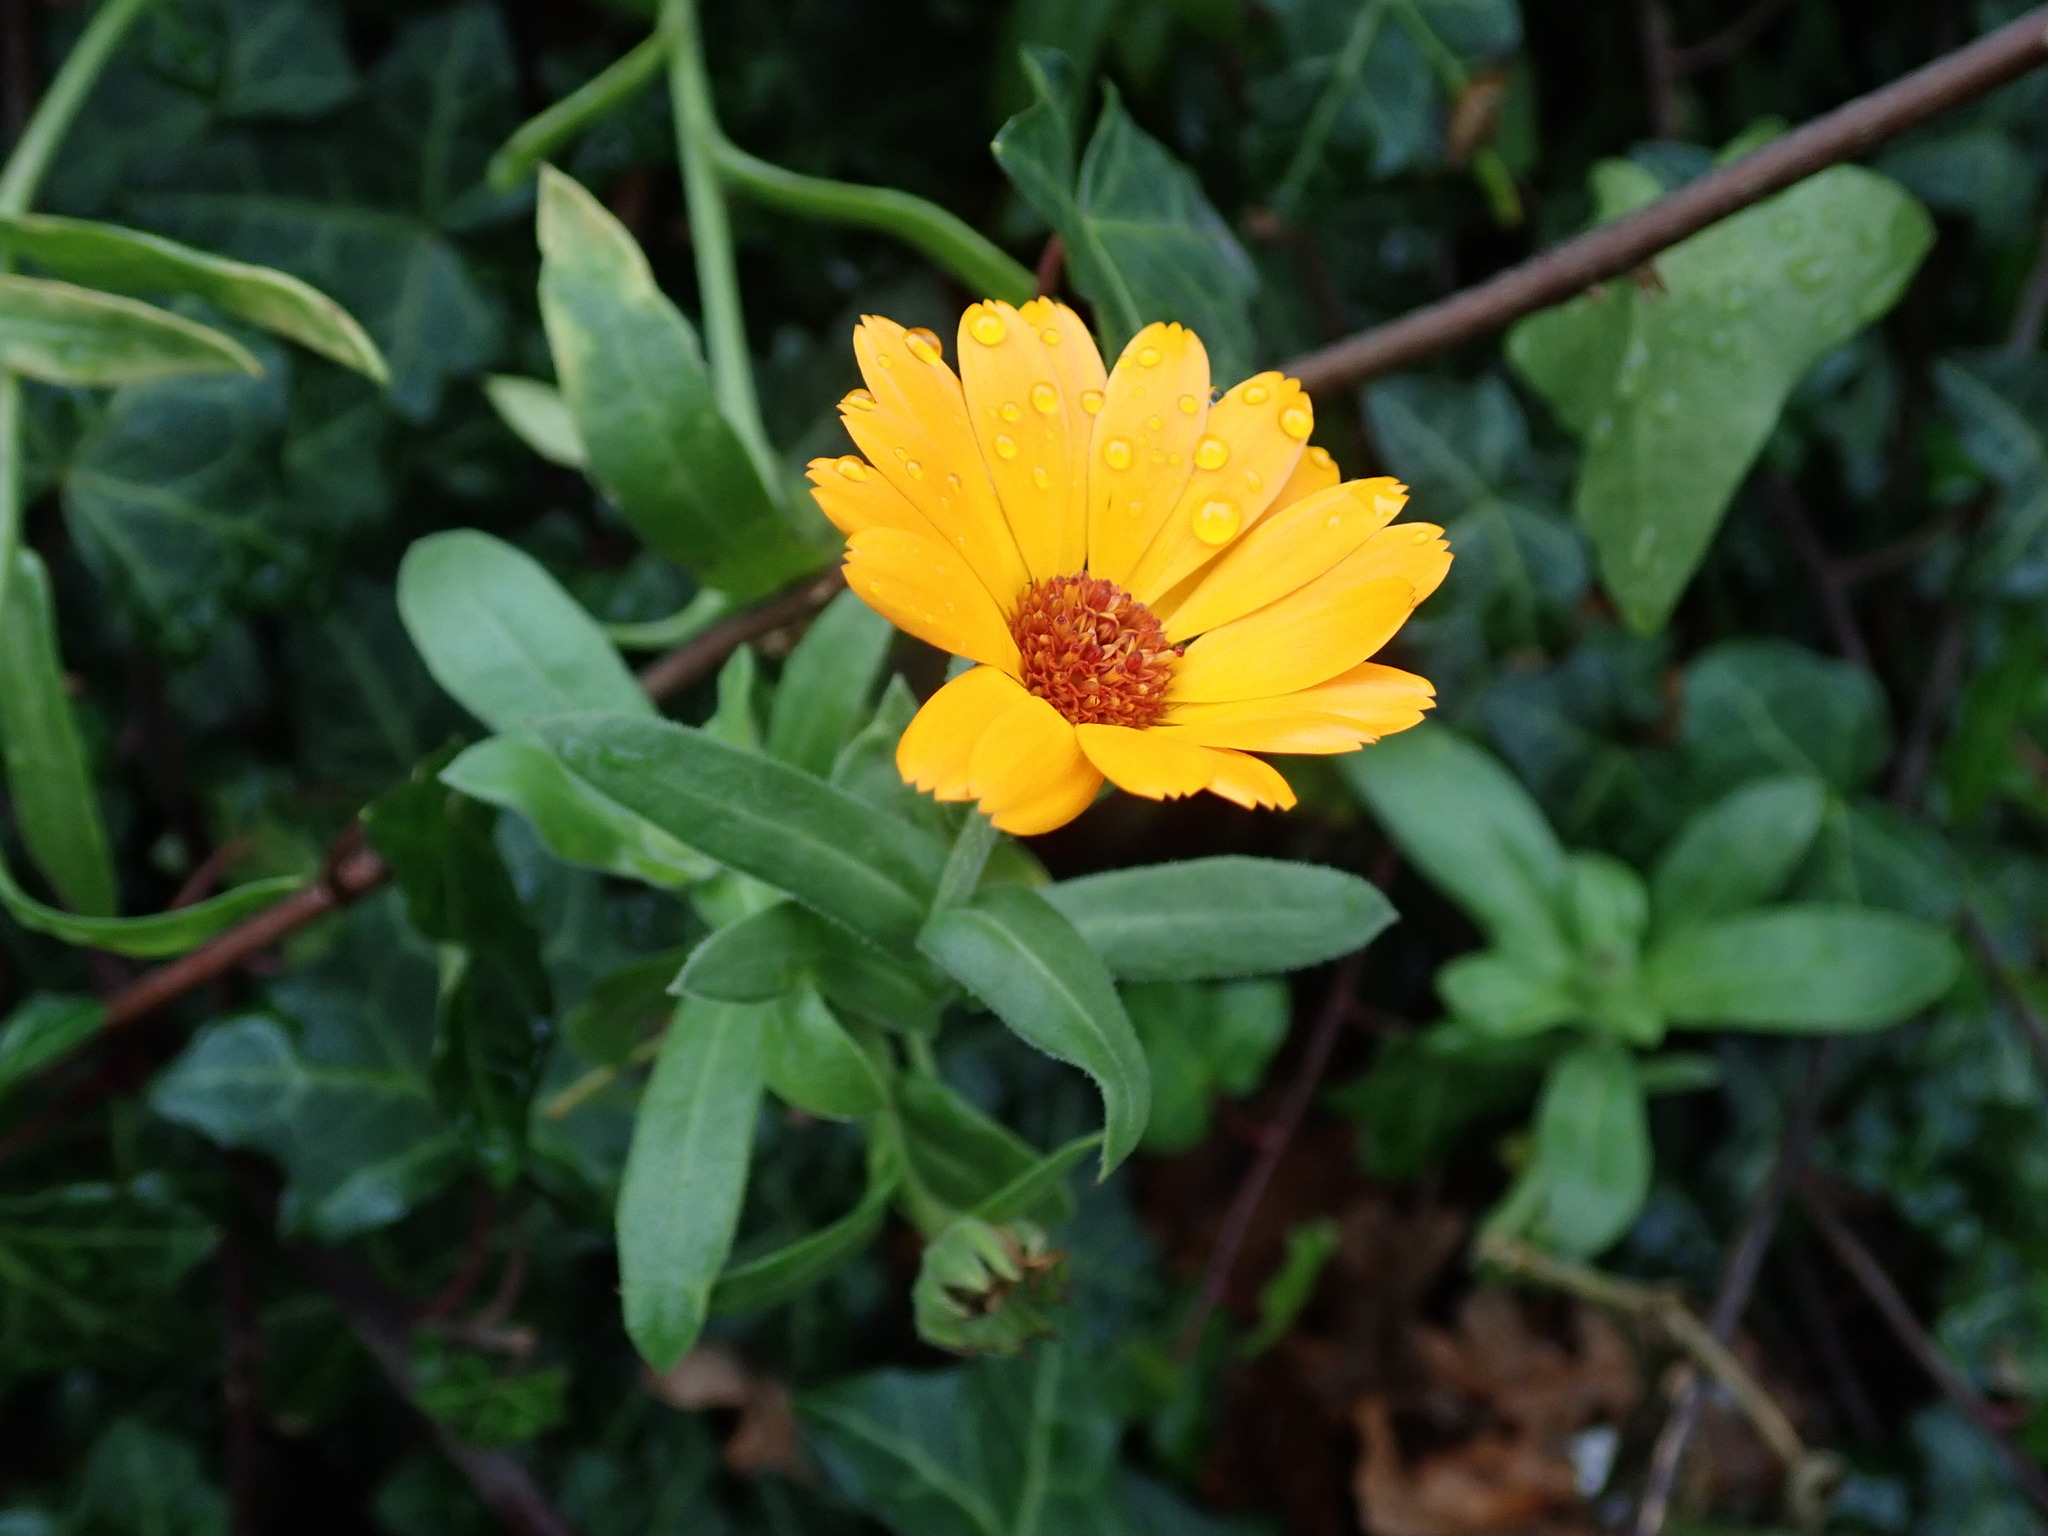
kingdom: Plantae
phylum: Tracheophyta
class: Magnoliopsida
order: Asterales
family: Asteraceae
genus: Calendula
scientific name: Calendula officinalis
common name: Pot marigold
